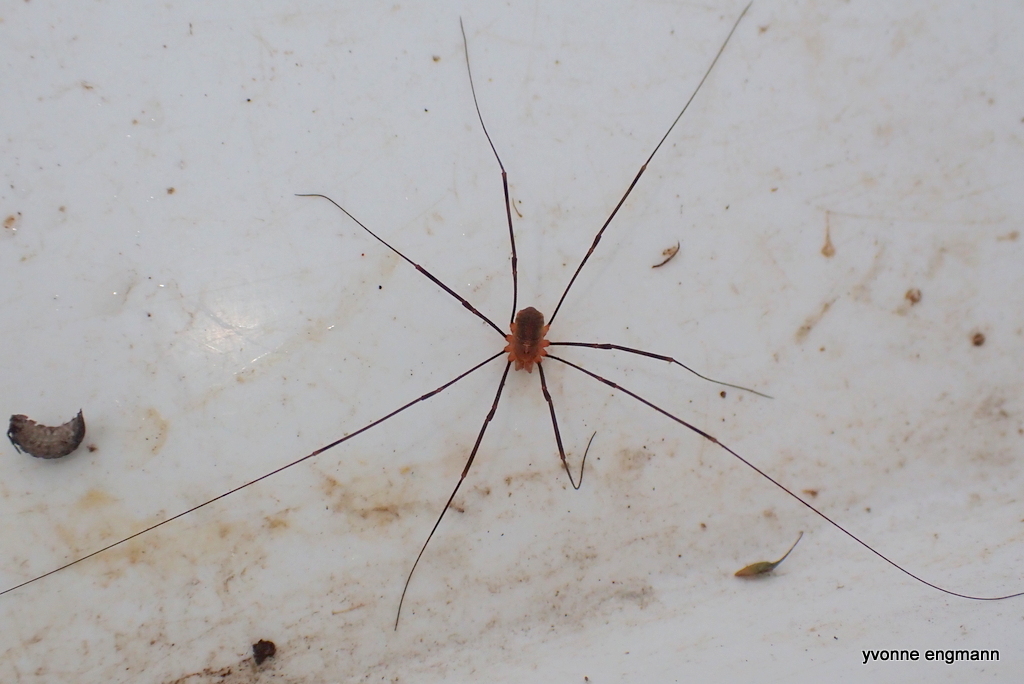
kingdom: Animalia
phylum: Arthropoda
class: Arachnida
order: Opiliones
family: Phalangiidae
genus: Opilio
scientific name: Opilio canestrinii
